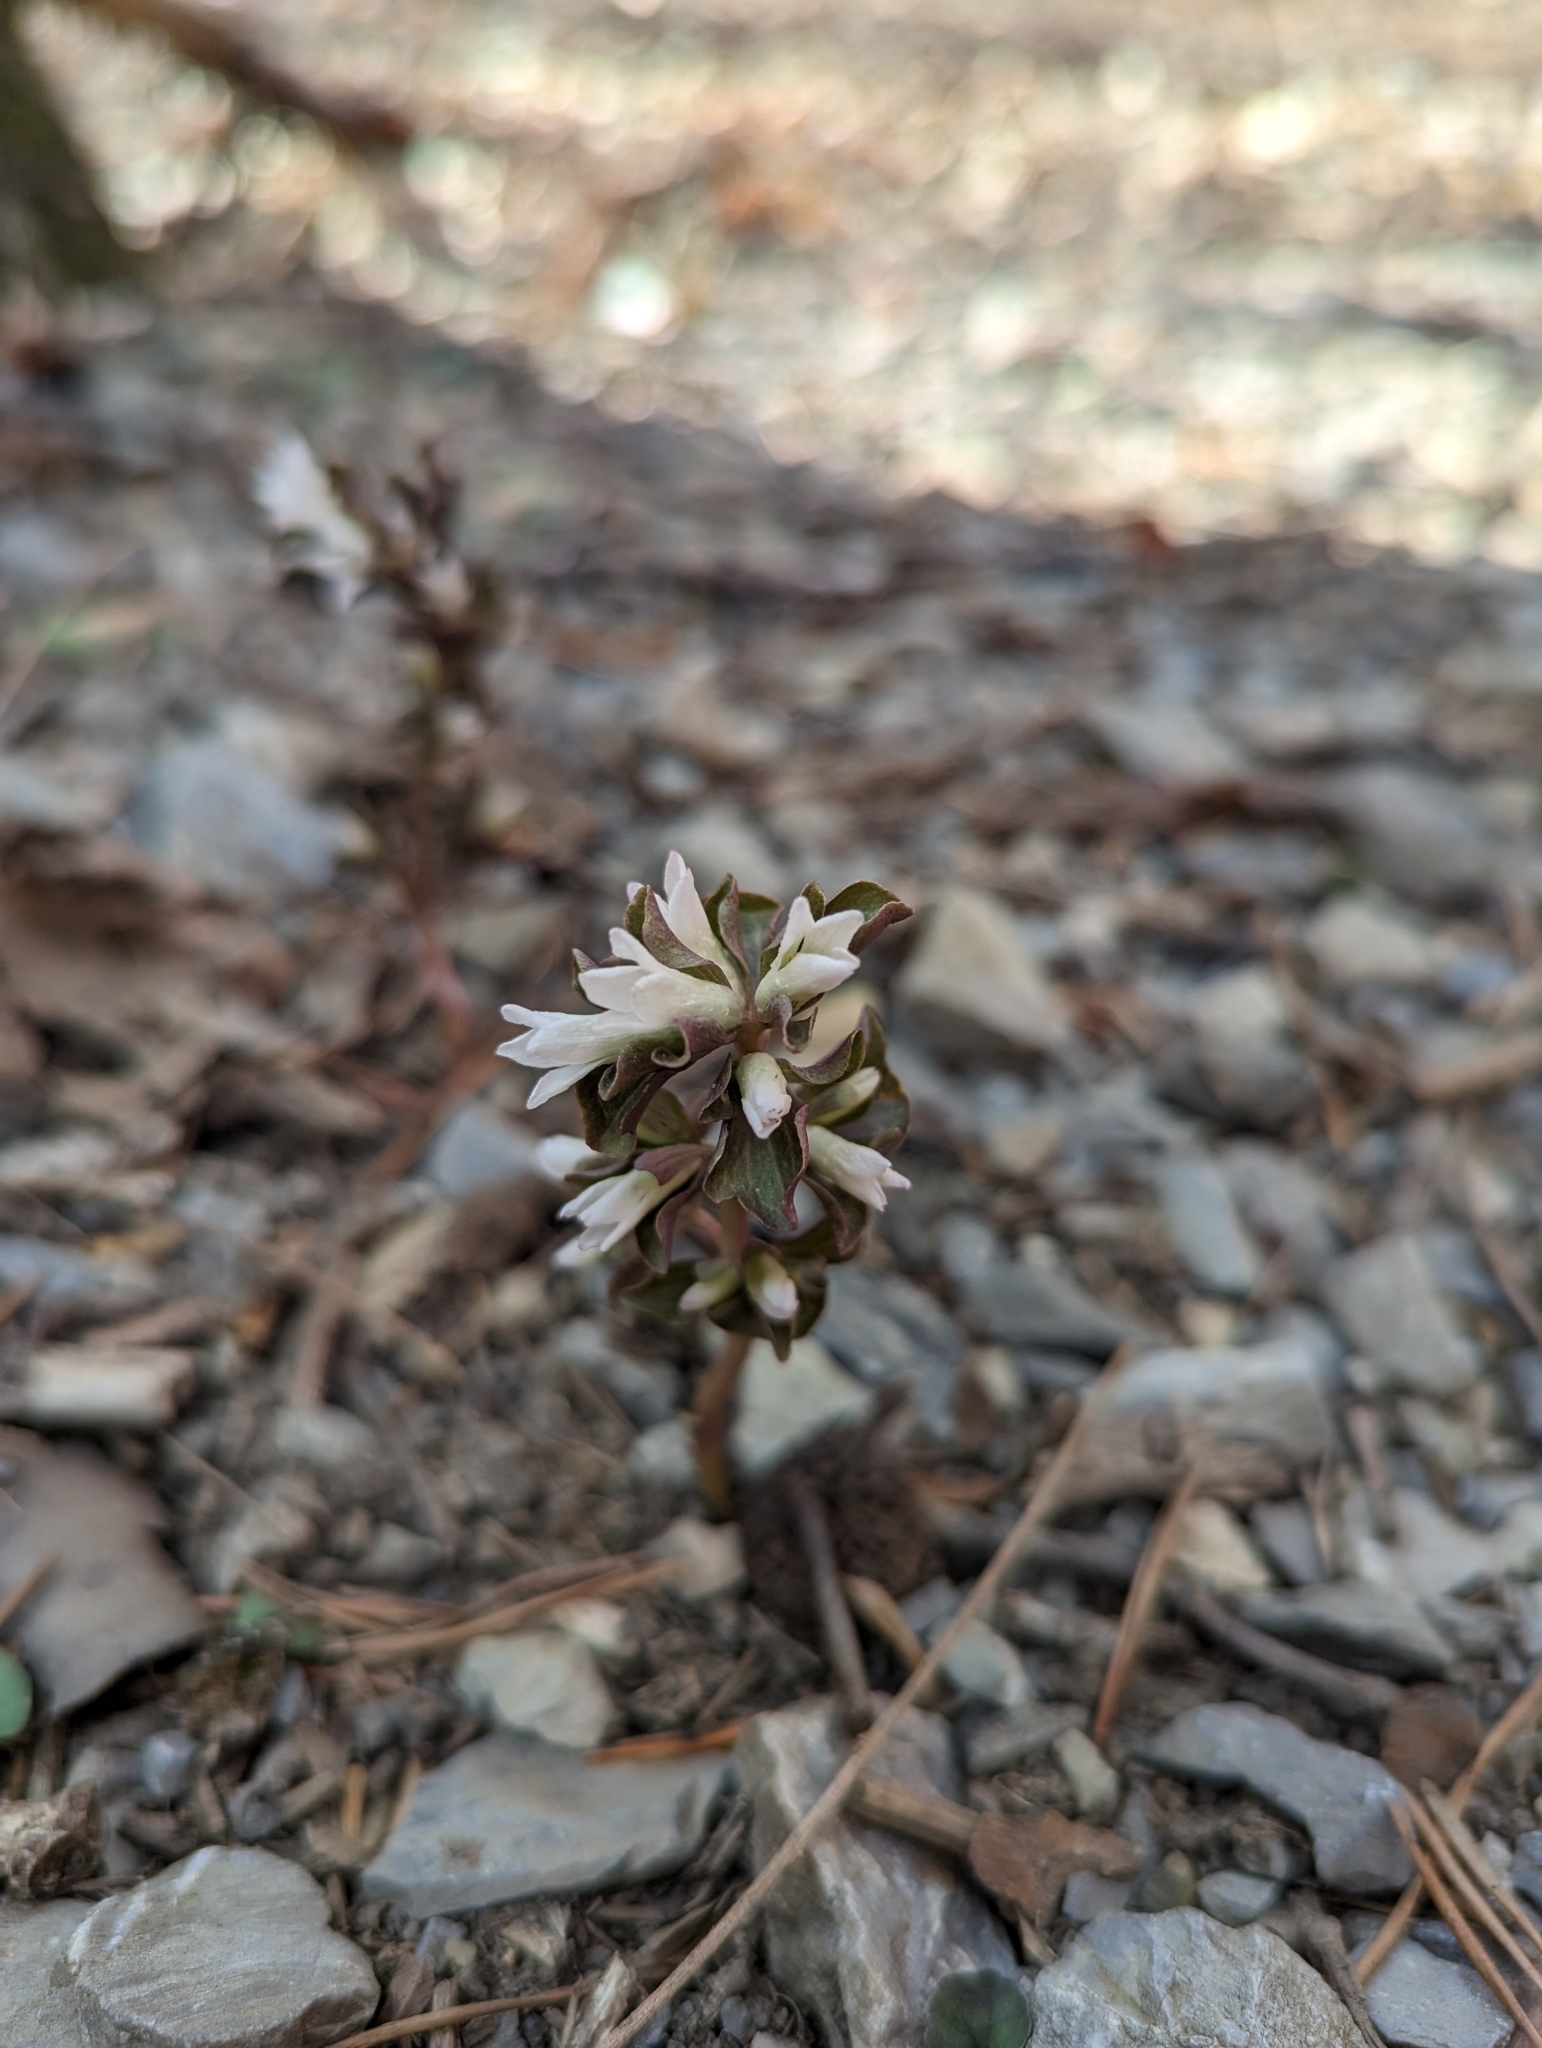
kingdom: Plantae
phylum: Tracheophyta
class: Magnoliopsida
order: Gentianales
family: Gentianaceae
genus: Obolaria
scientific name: Obolaria virginica
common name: Pennywort
